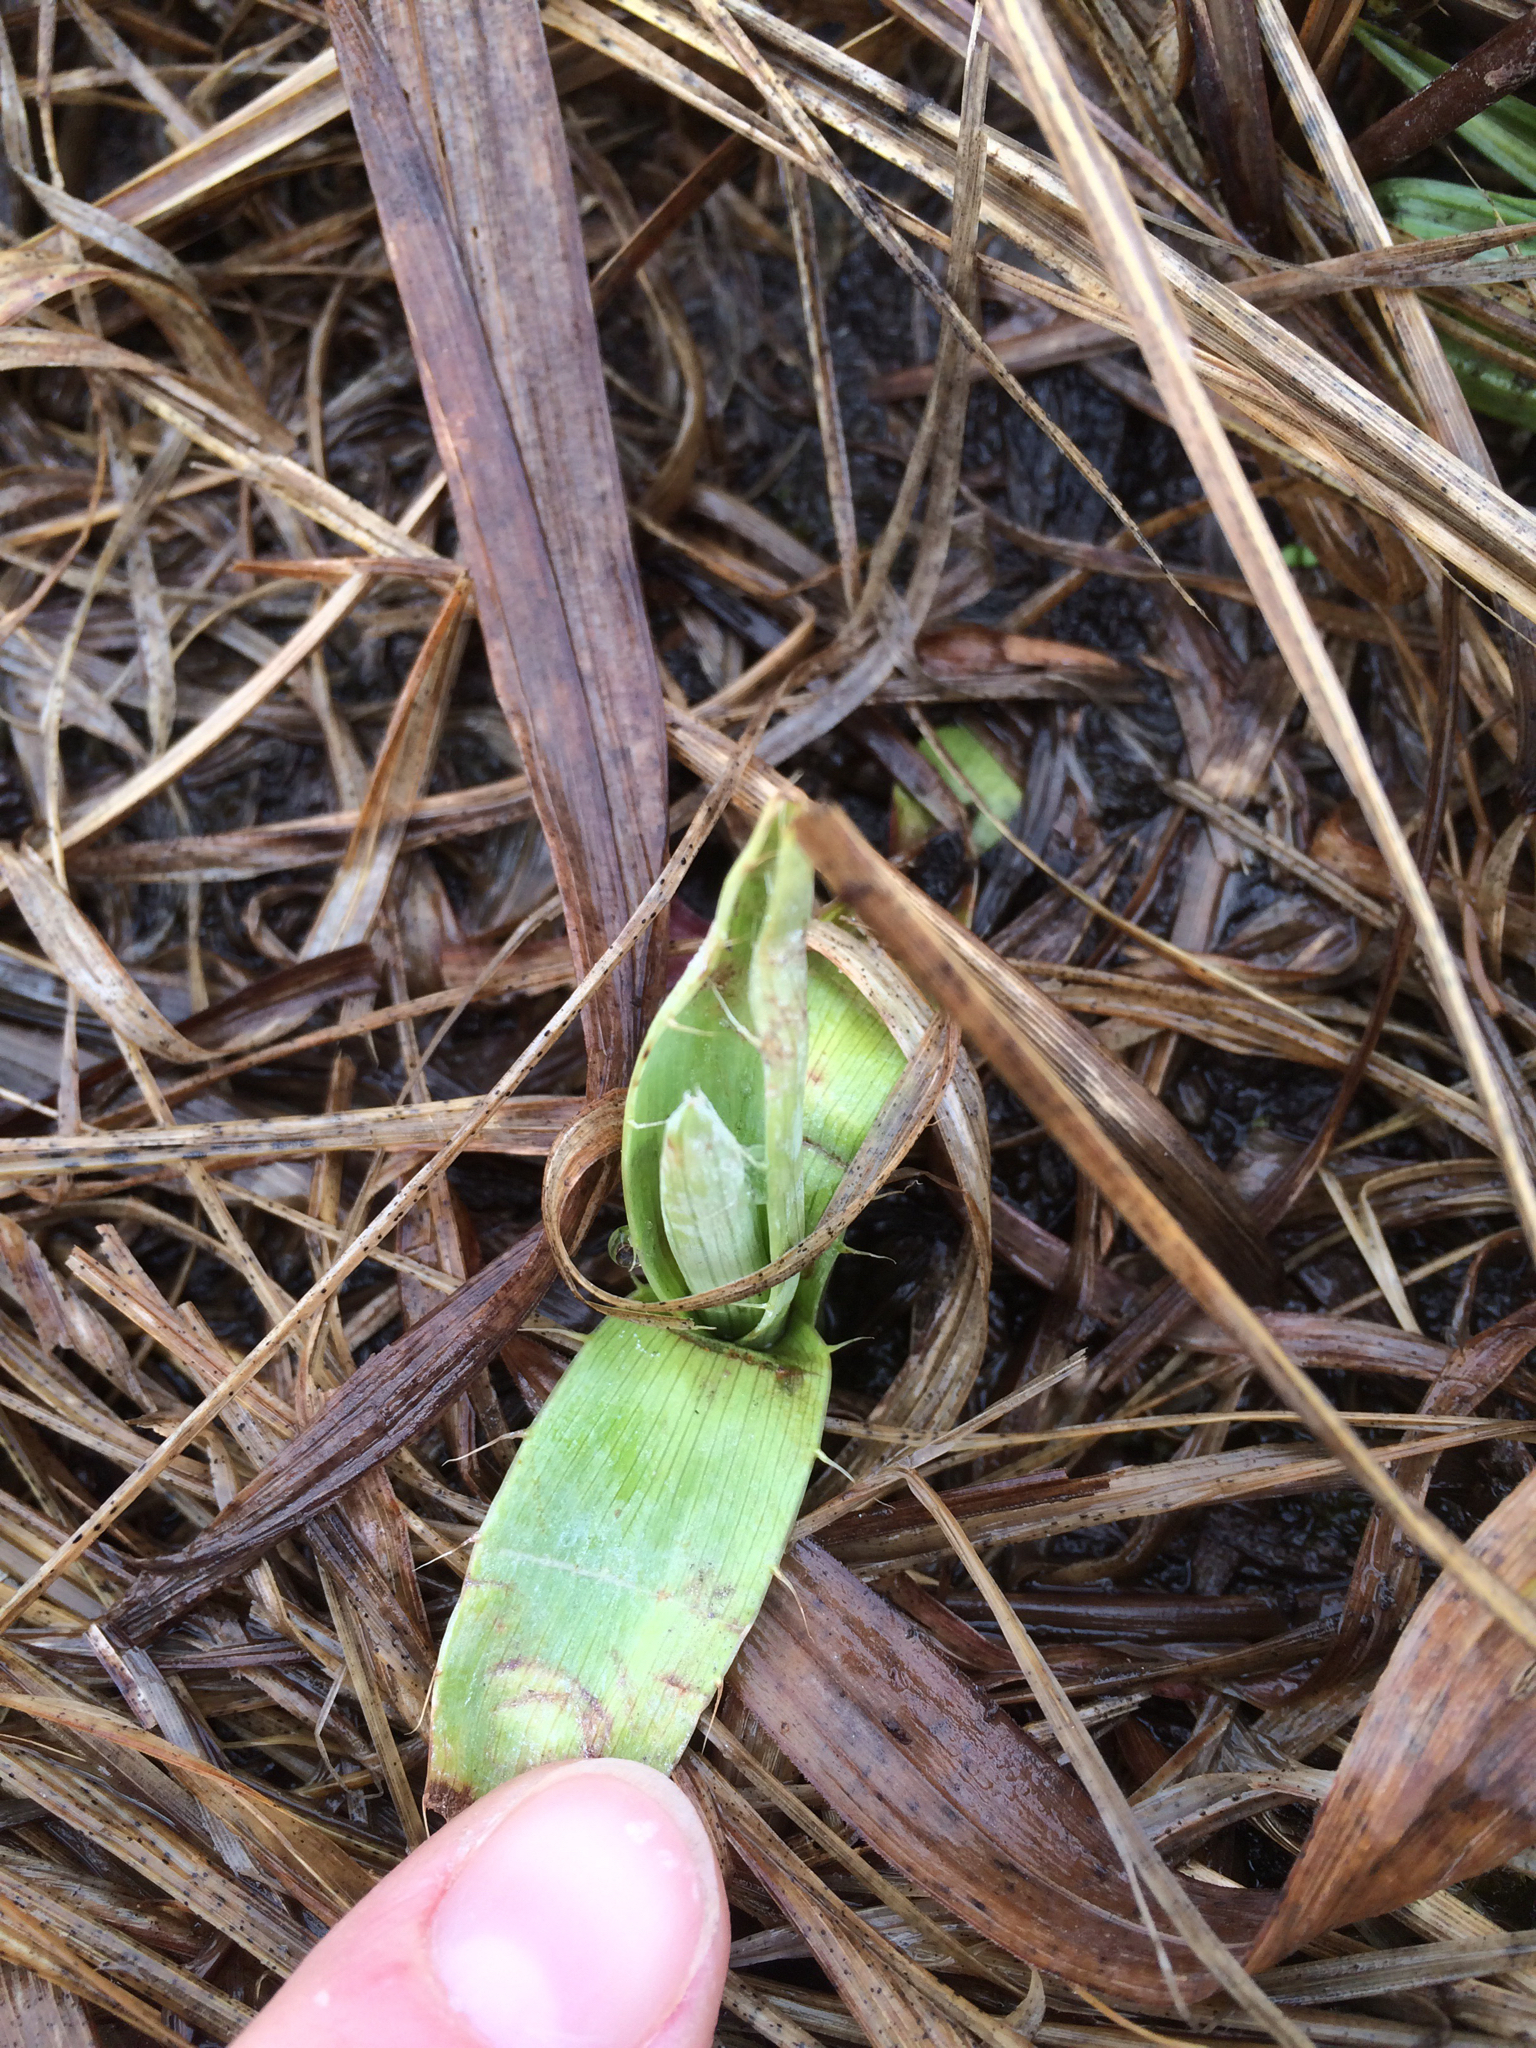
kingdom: Plantae
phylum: Tracheophyta
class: Magnoliopsida
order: Apiales
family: Apiaceae
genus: Eryngium
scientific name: Eryngium yuccifolium
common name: Button eryngo
